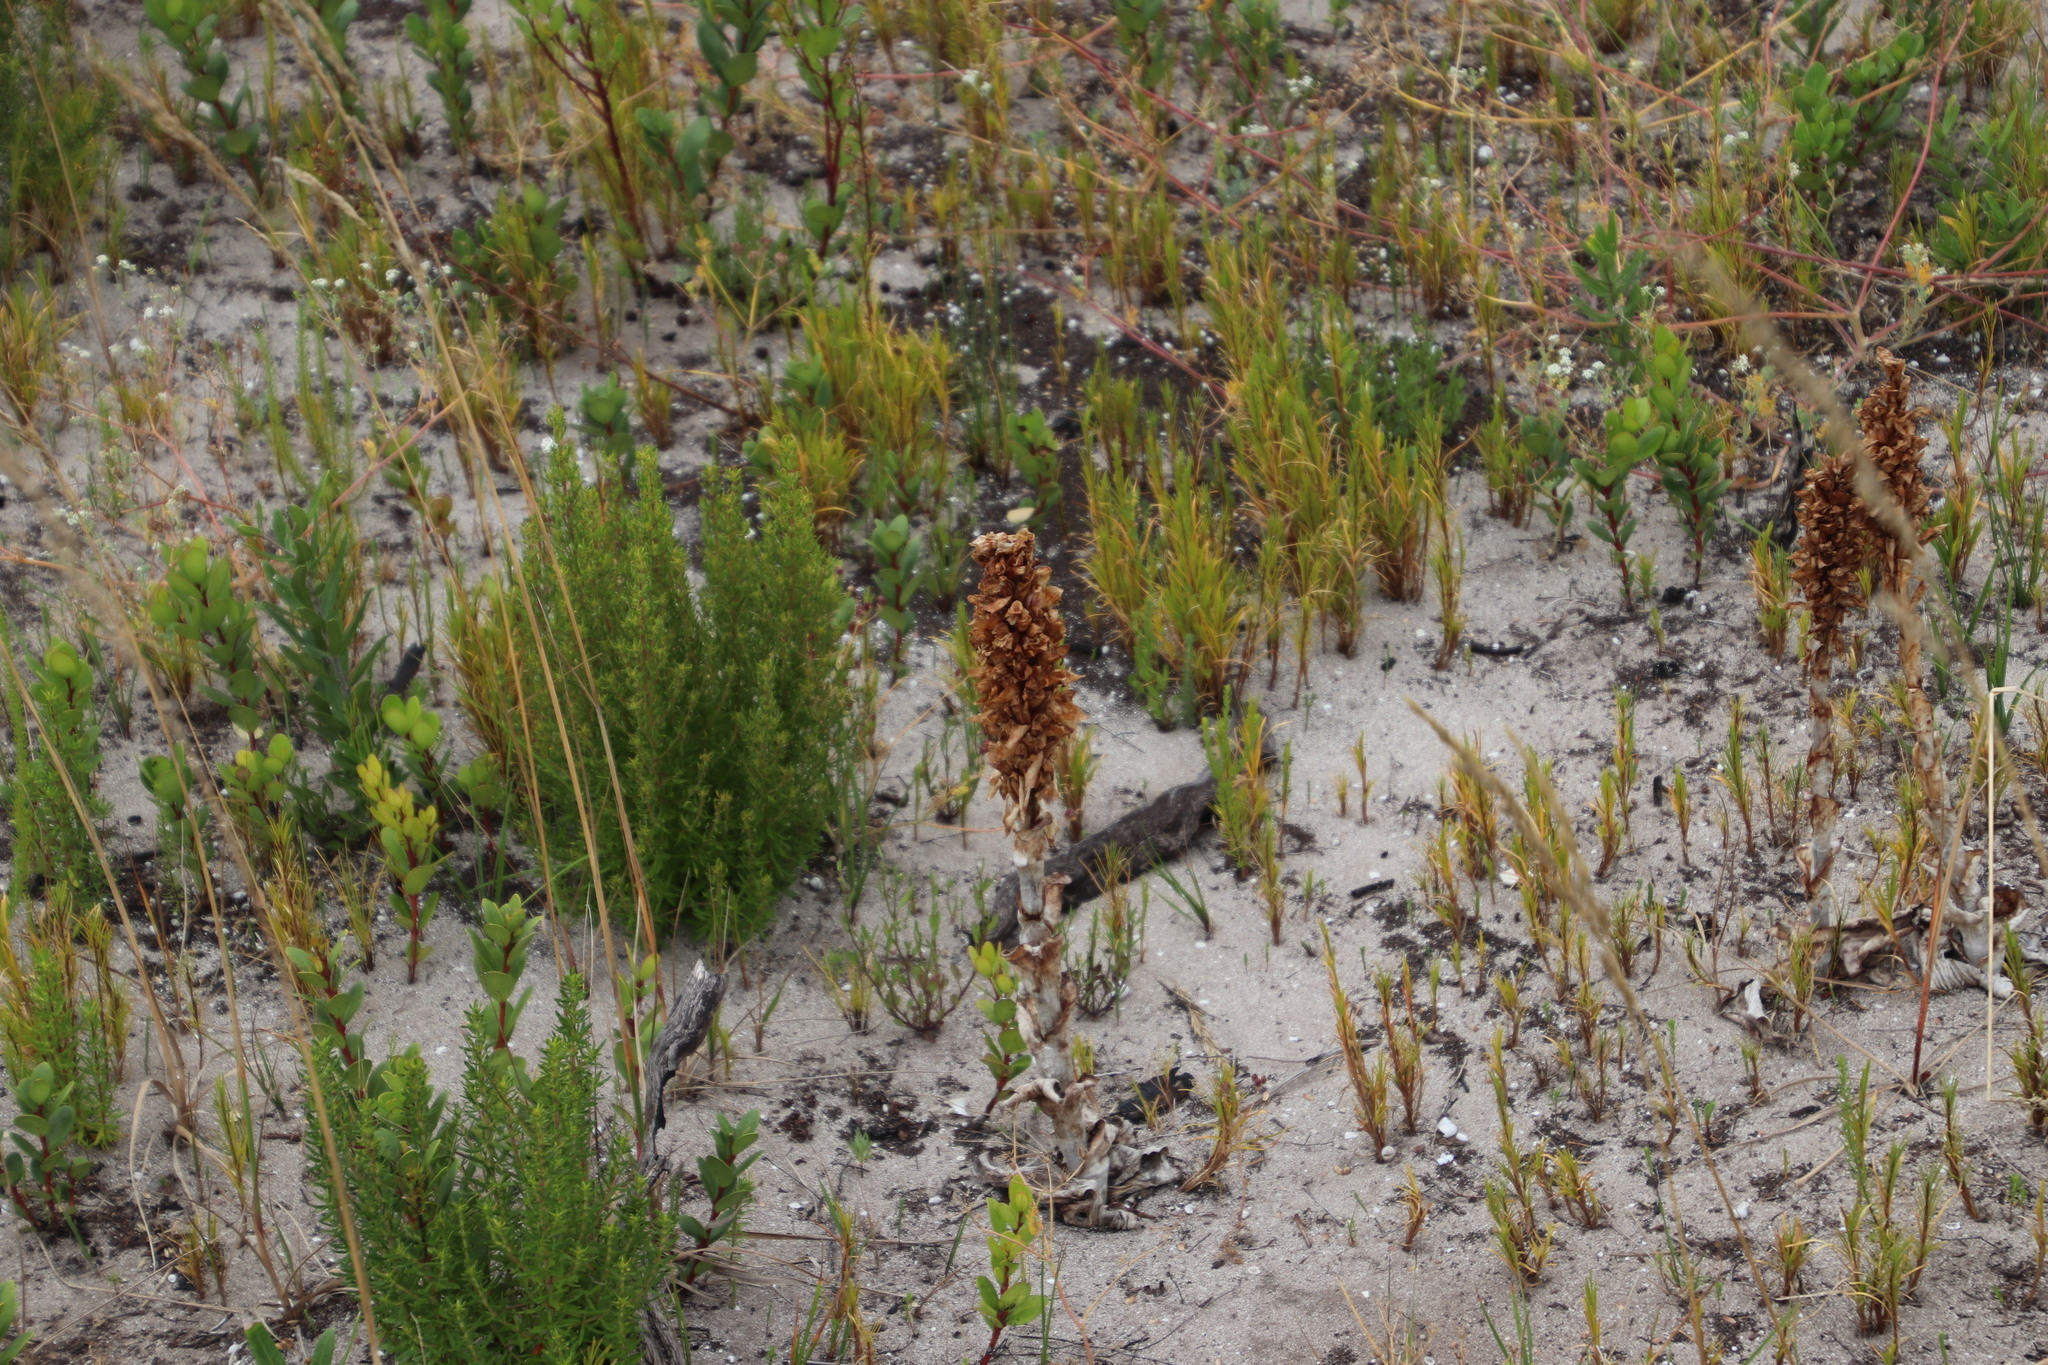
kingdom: Plantae
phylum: Tracheophyta
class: Liliopsida
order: Asparagales
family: Orchidaceae
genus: Satyrium
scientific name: Satyrium carneum
